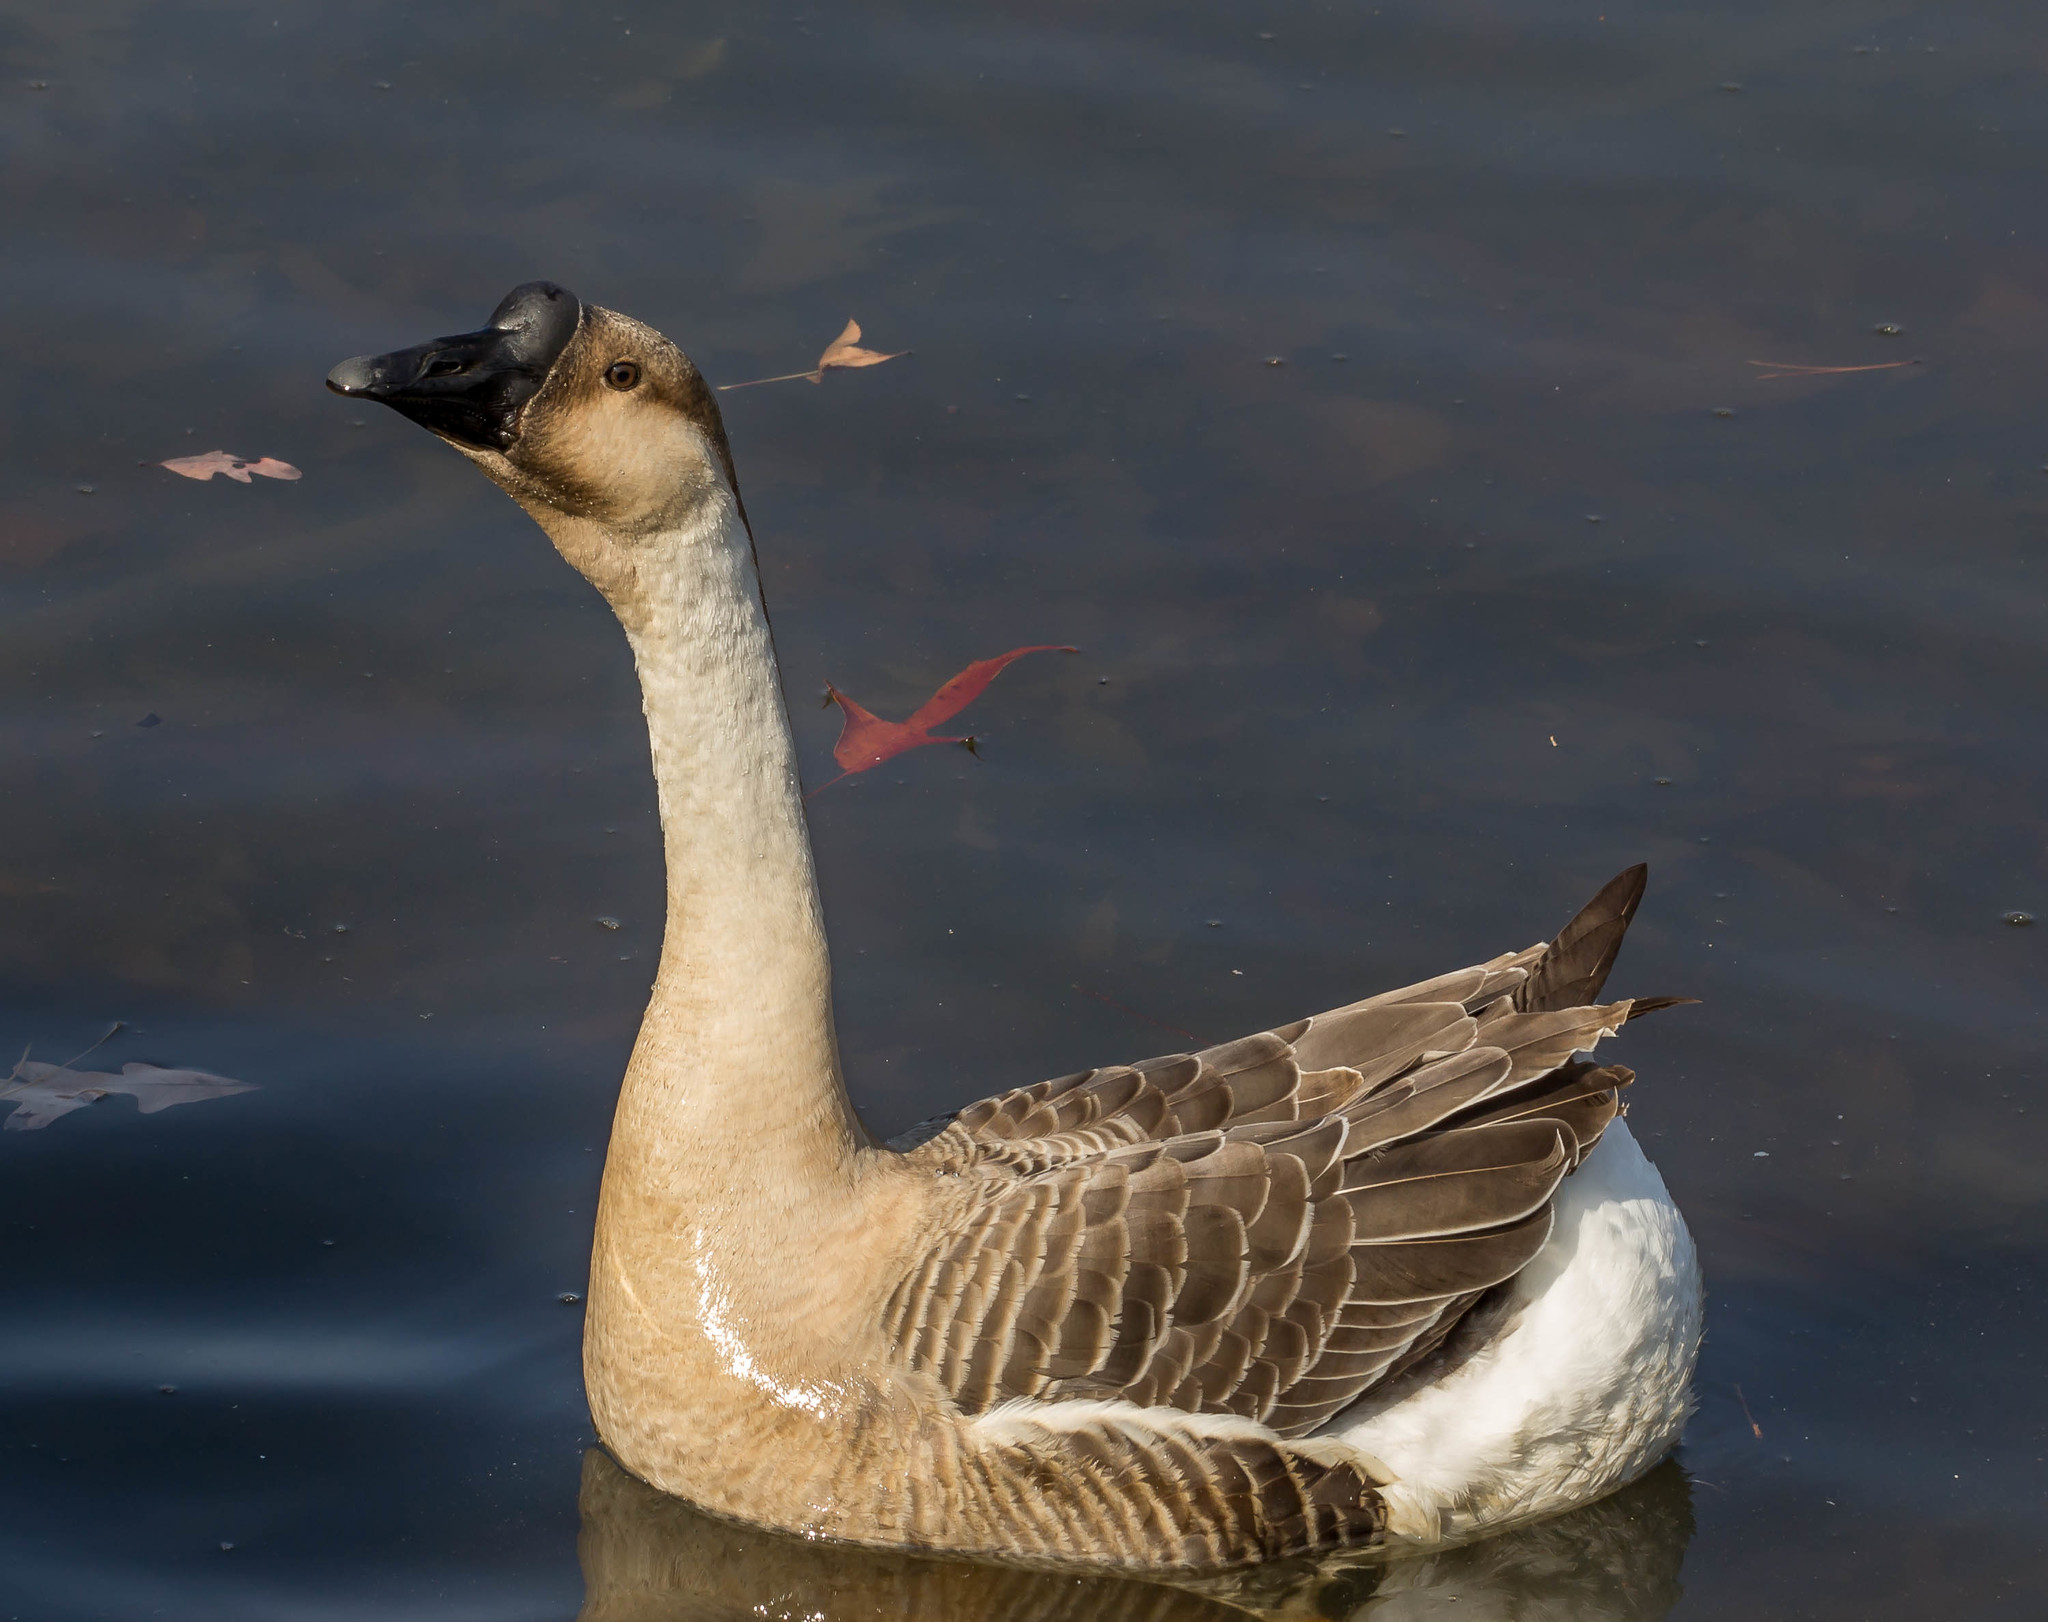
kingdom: Animalia
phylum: Chordata
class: Aves
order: Anseriformes
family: Anatidae
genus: Anser
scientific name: Anser cygnoides
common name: Swan goose
